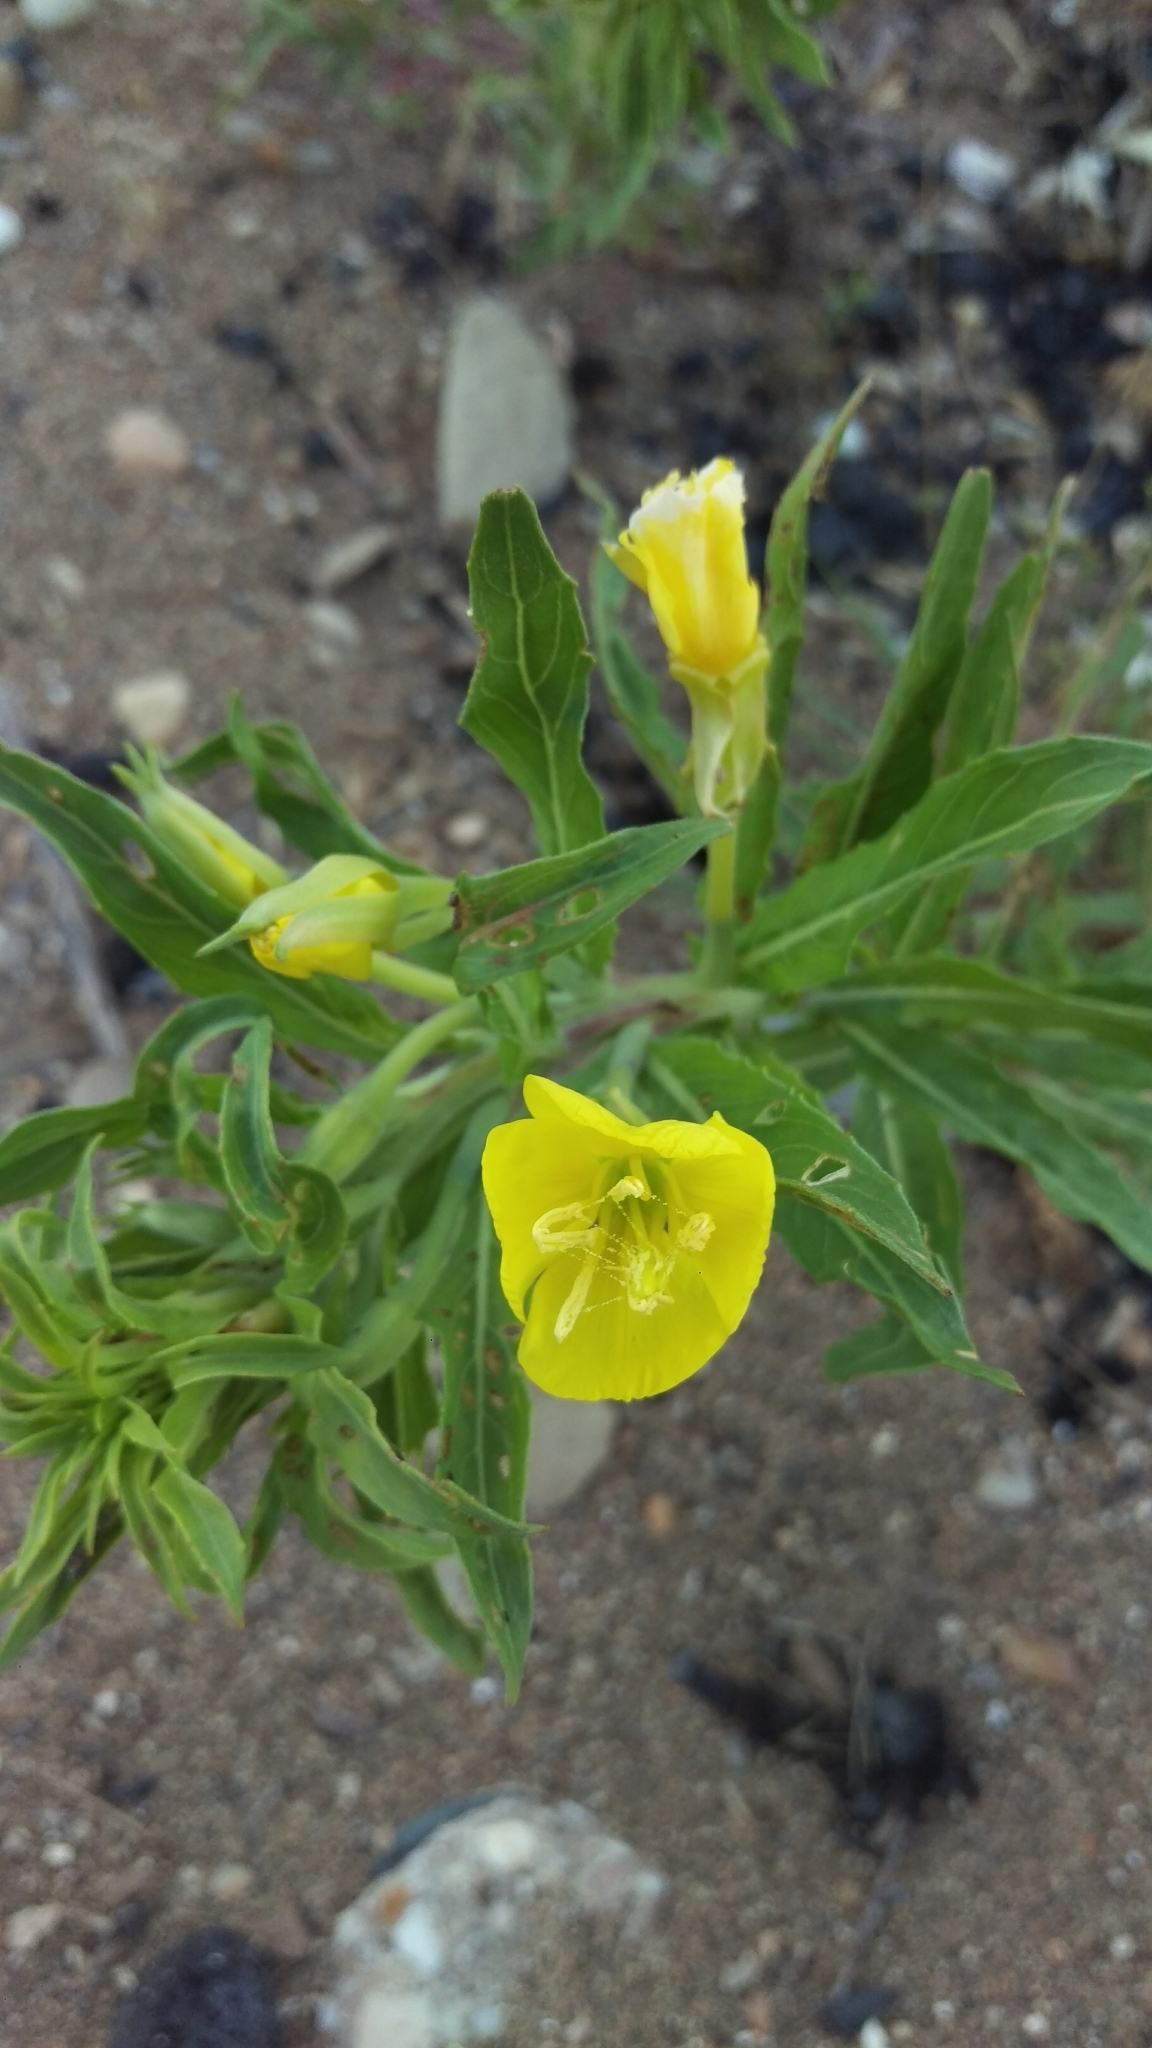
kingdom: Plantae
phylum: Tracheophyta
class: Magnoliopsida
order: Myrtales
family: Onagraceae
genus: Oenothera
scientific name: Oenothera biennis
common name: Common evening-primrose
